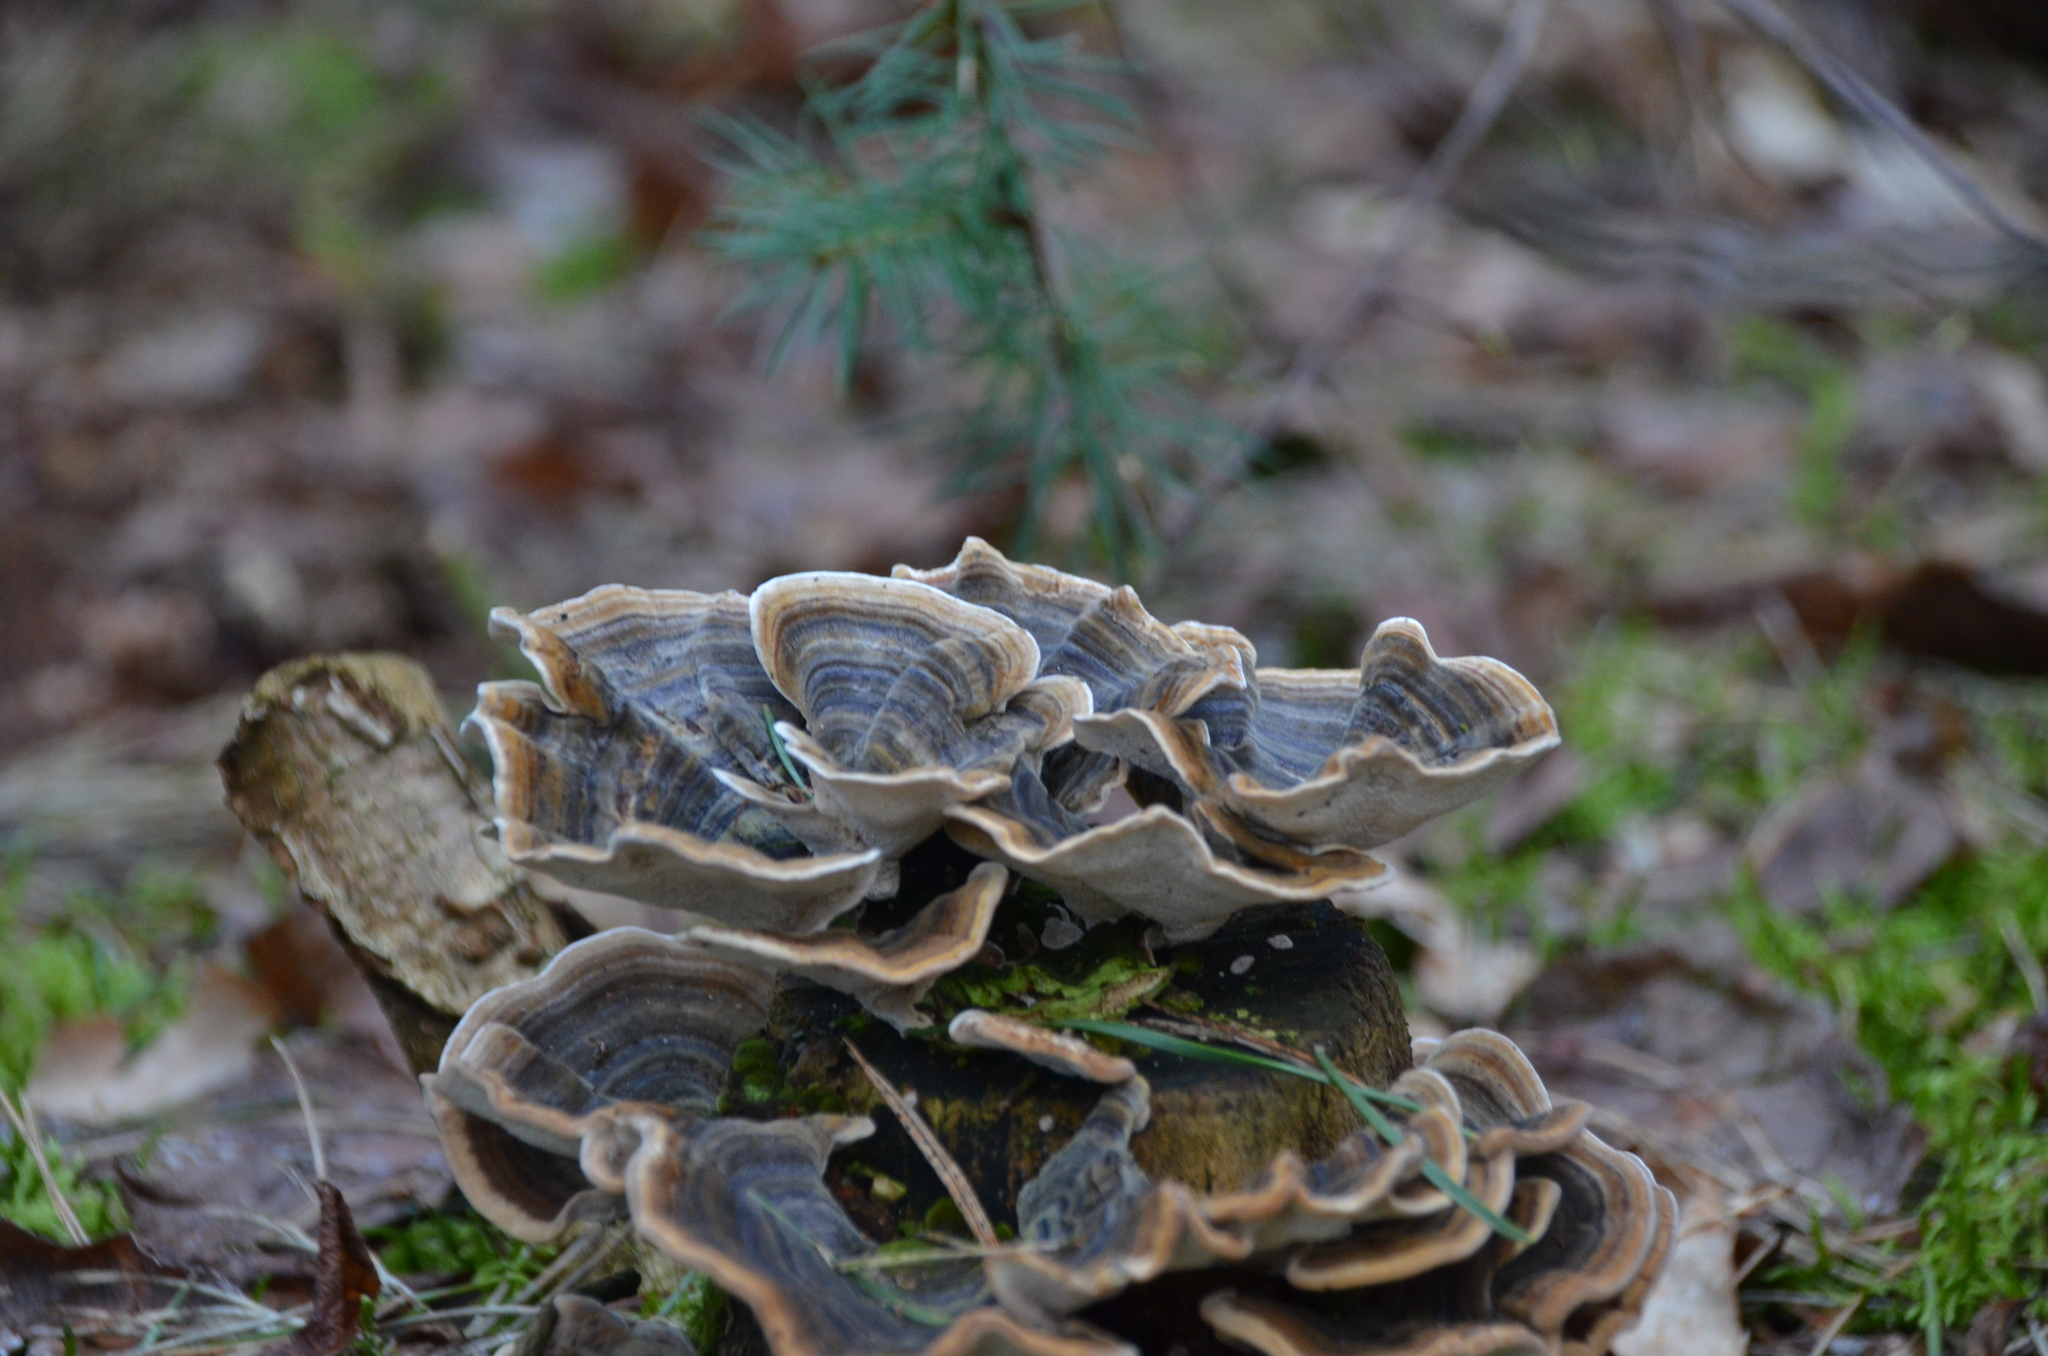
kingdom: Fungi
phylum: Basidiomycota
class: Agaricomycetes
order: Polyporales
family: Polyporaceae
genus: Trametes
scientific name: Trametes versicolor
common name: Turkeytail
